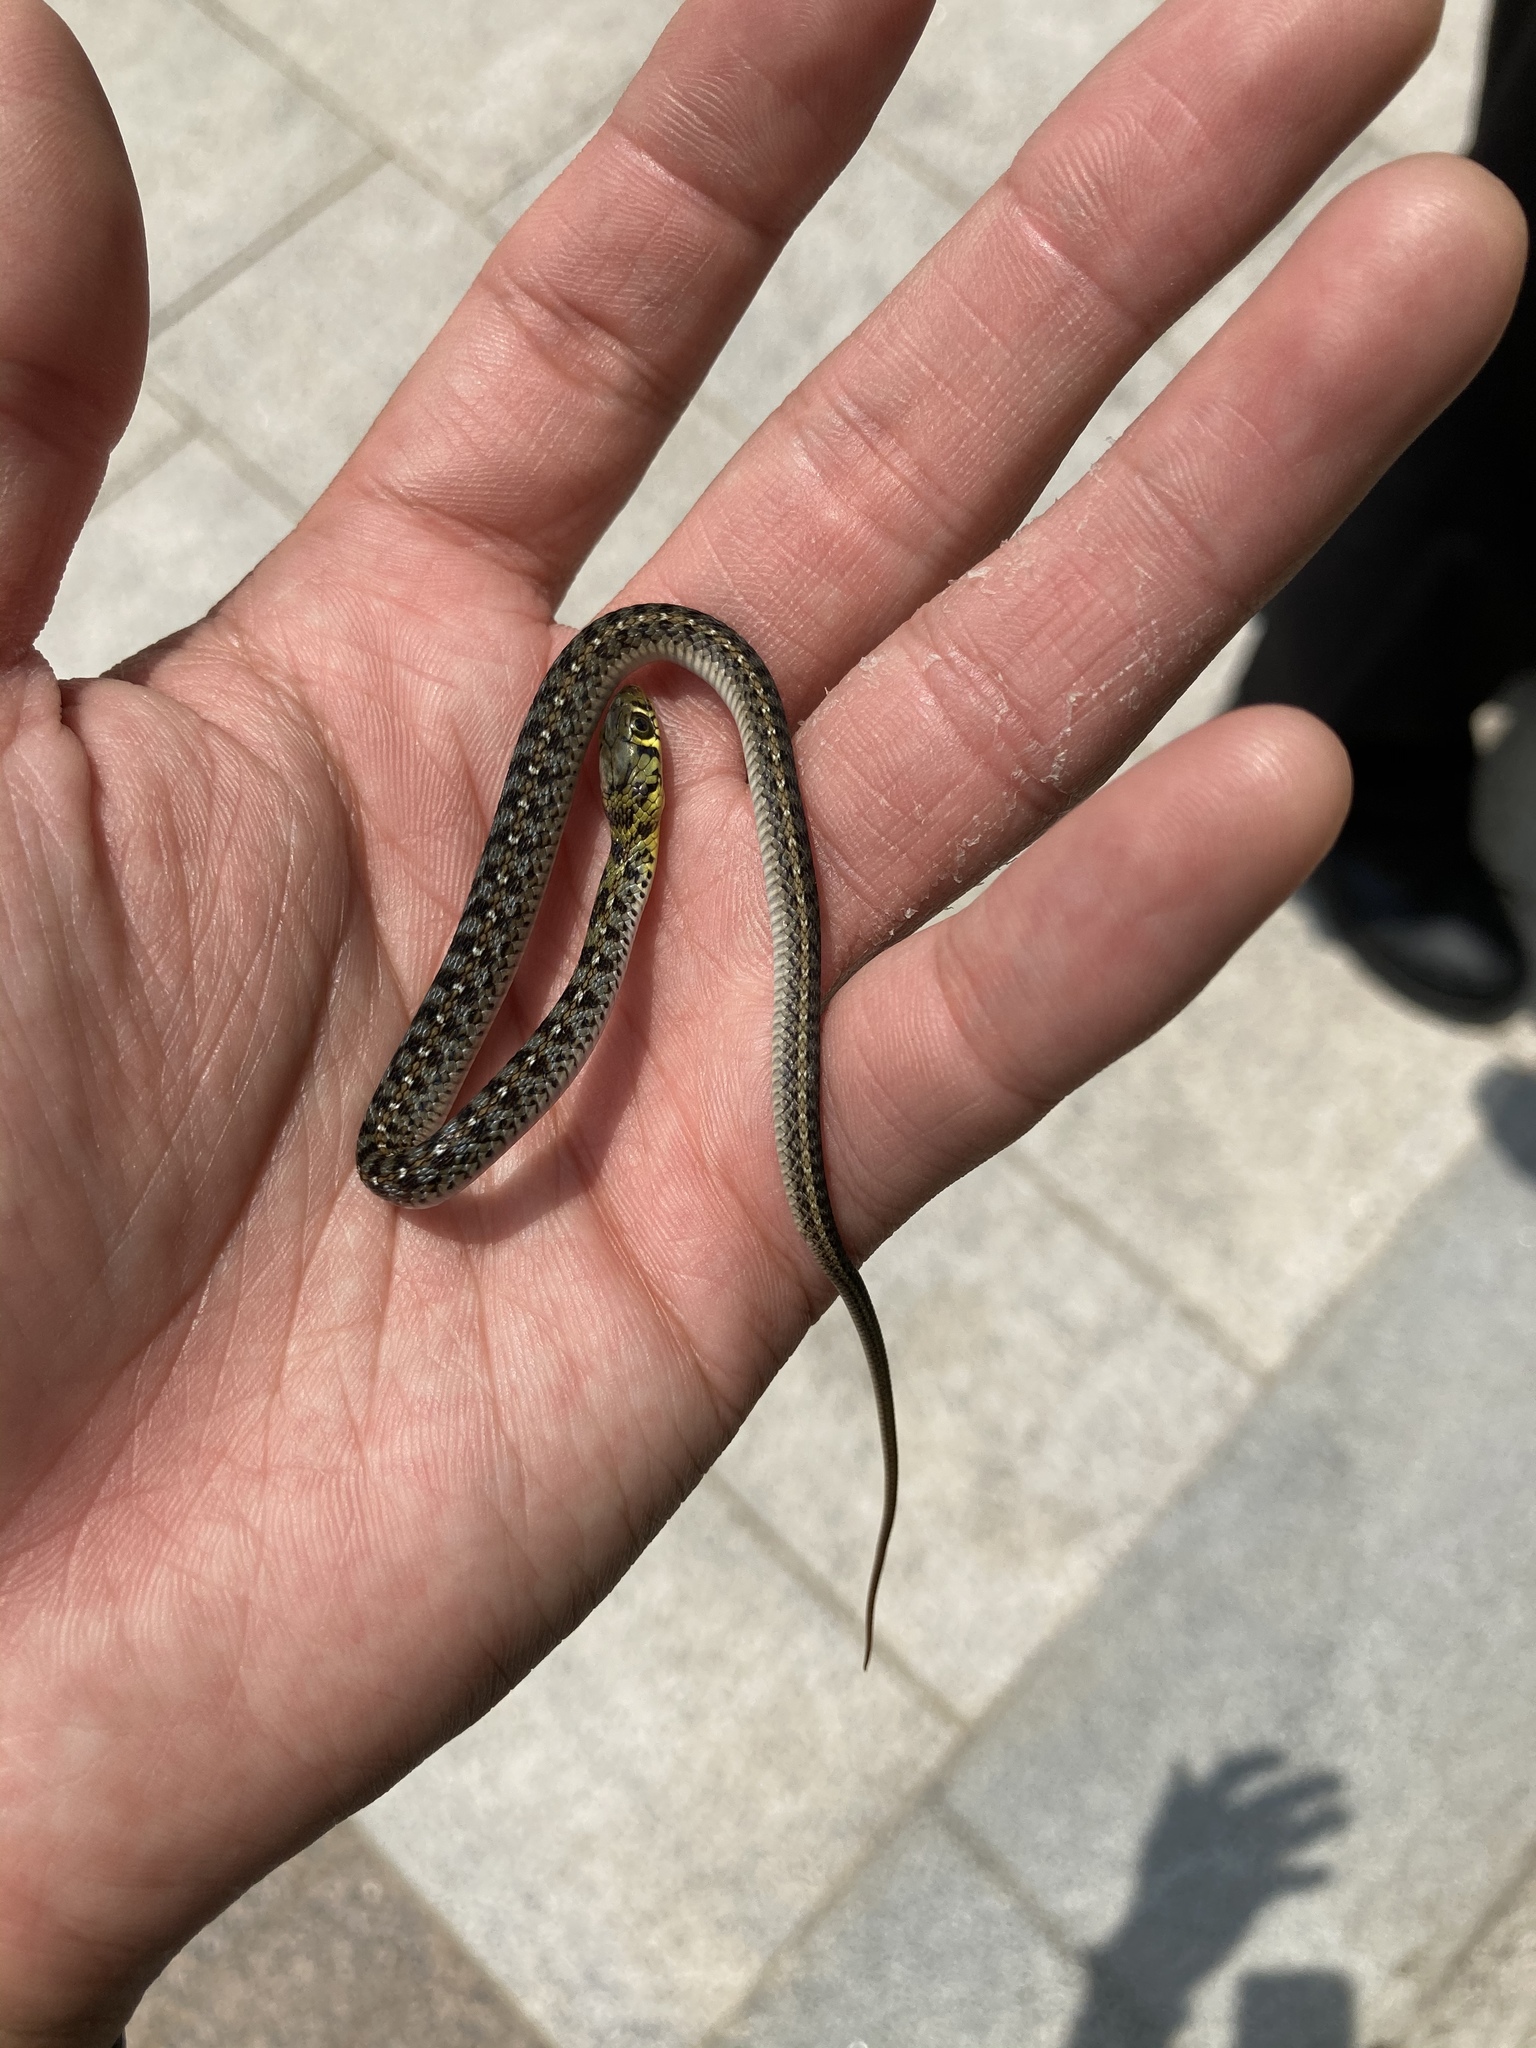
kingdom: Animalia
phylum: Chordata
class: Squamata
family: Colubridae
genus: Amphiesma
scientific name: Amphiesma stolatum
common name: Buff striped keelback
